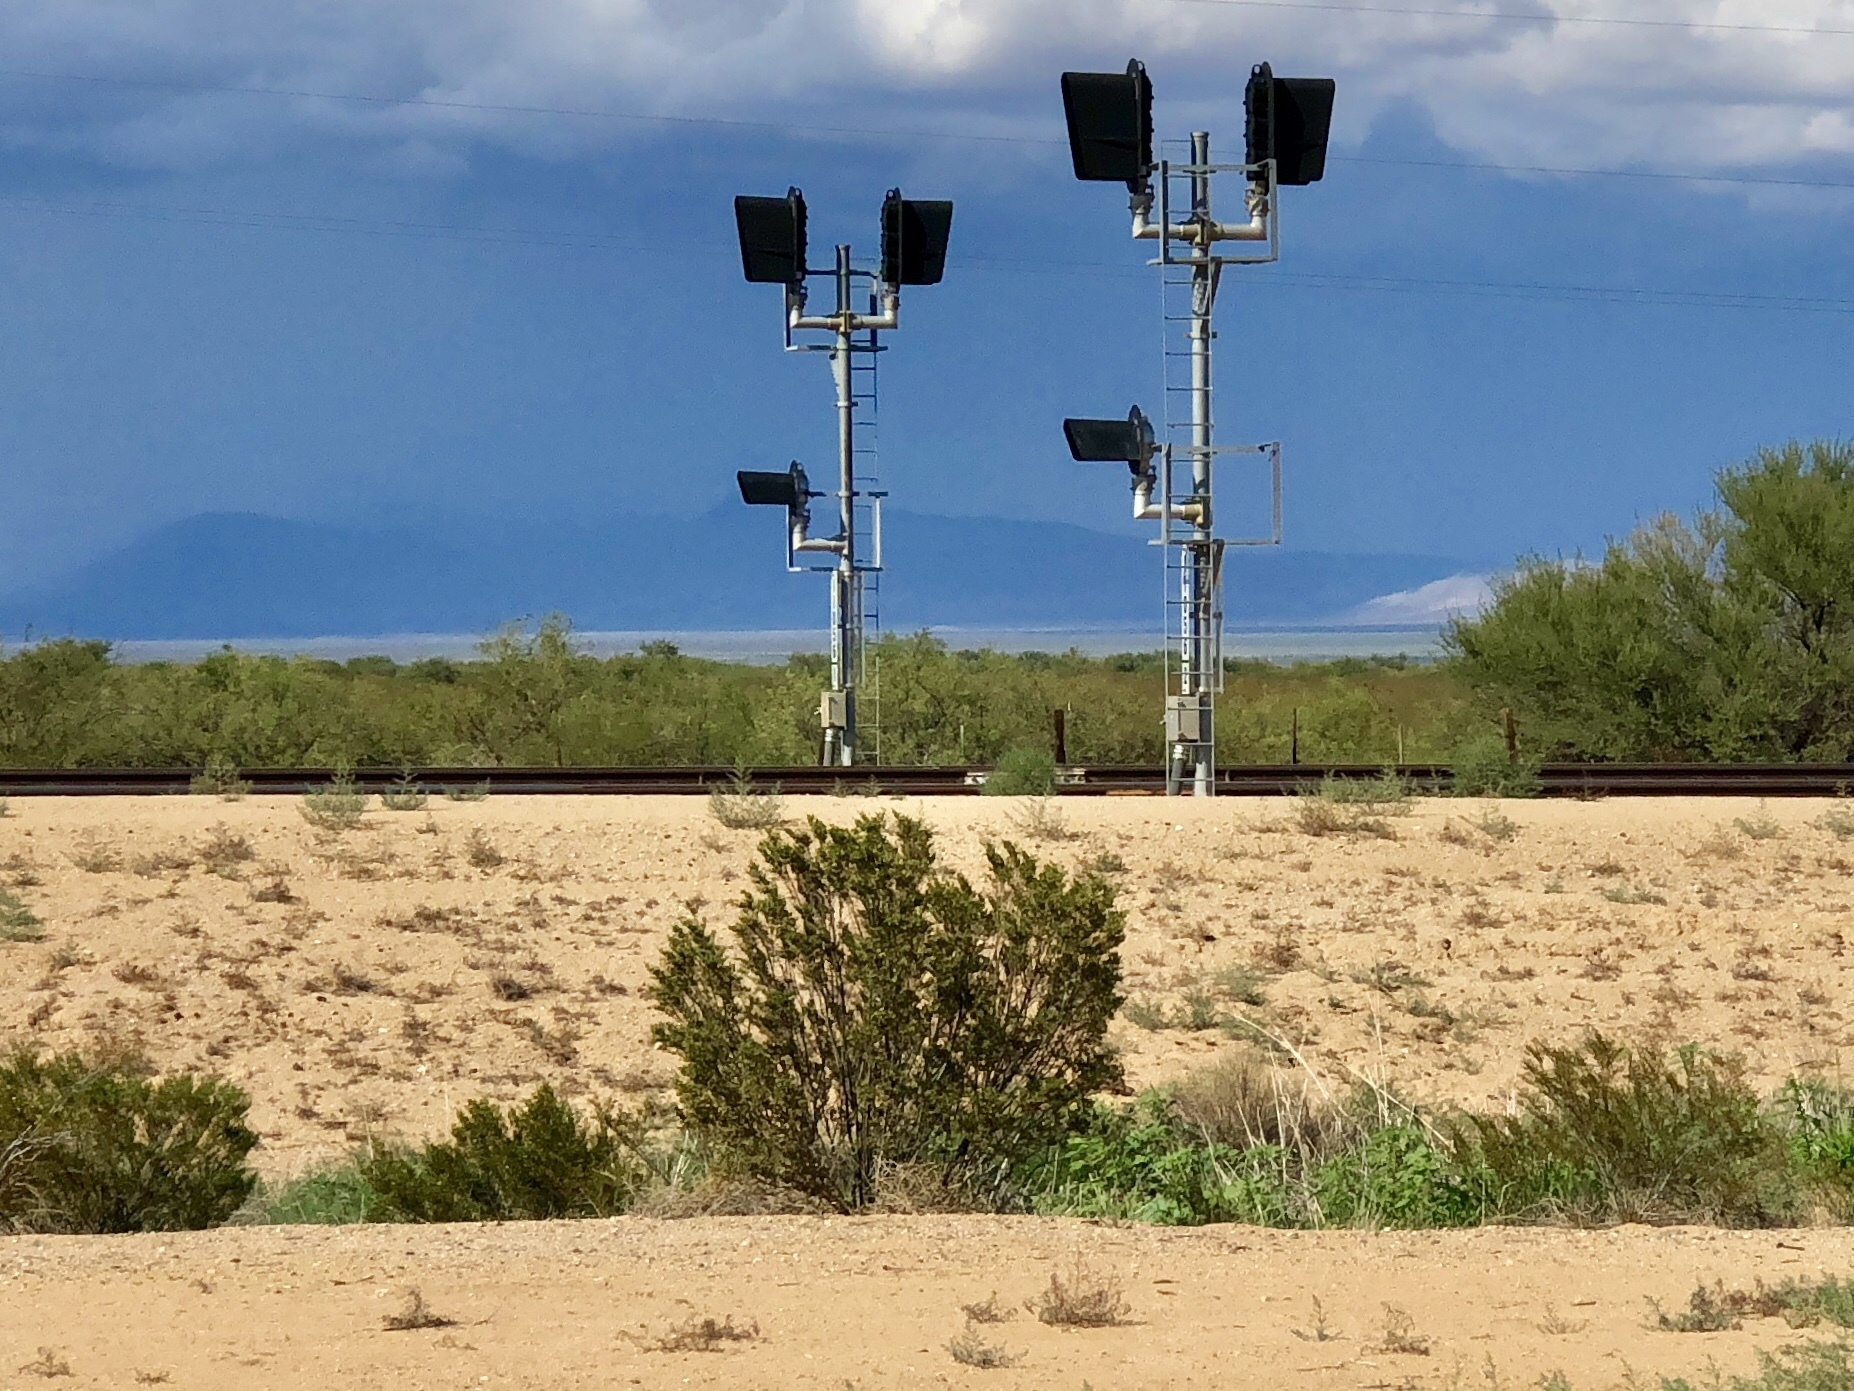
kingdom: Plantae
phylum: Tracheophyta
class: Magnoliopsida
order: Zygophyllales
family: Zygophyllaceae
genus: Larrea
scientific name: Larrea tridentata
